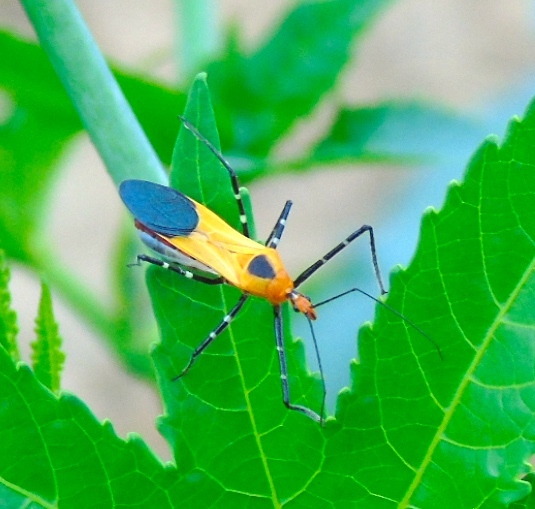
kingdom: Animalia
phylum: Arthropoda
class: Insecta
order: Hemiptera
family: Reduviidae
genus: Zelus
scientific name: Zelus longipes
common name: Milkweed assassin bug
